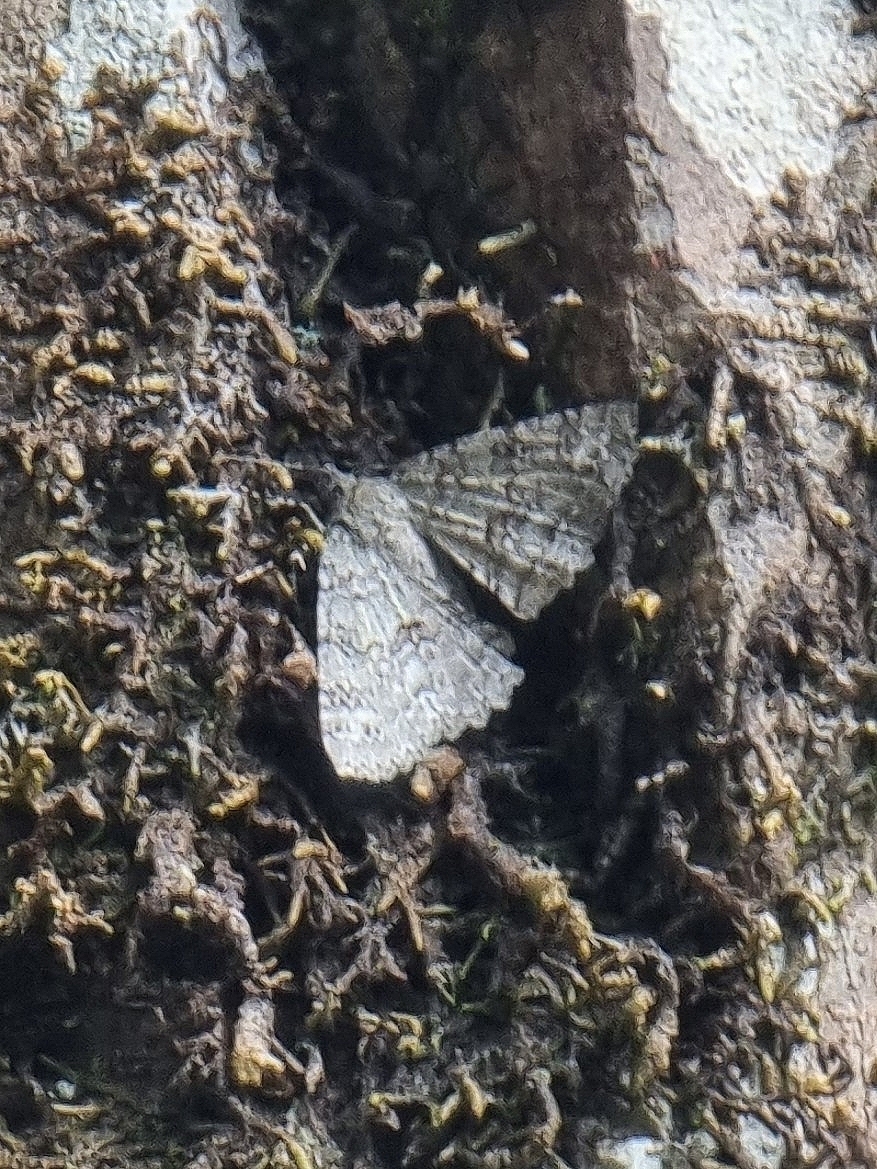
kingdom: Animalia
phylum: Arthropoda
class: Insecta
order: Lepidoptera
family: Geometridae
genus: Ascotis
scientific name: Ascotis fortunata
